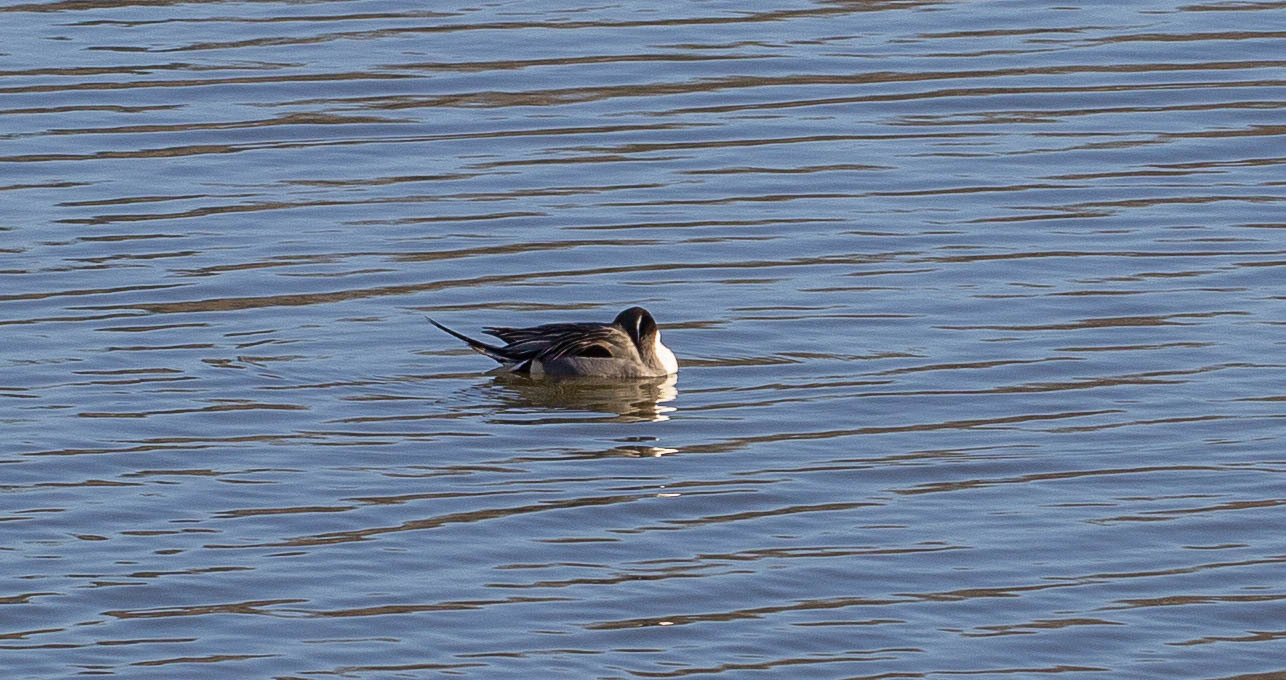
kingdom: Animalia
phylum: Chordata
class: Aves
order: Anseriformes
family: Anatidae
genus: Anas
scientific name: Anas acuta
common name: Northern pintail
